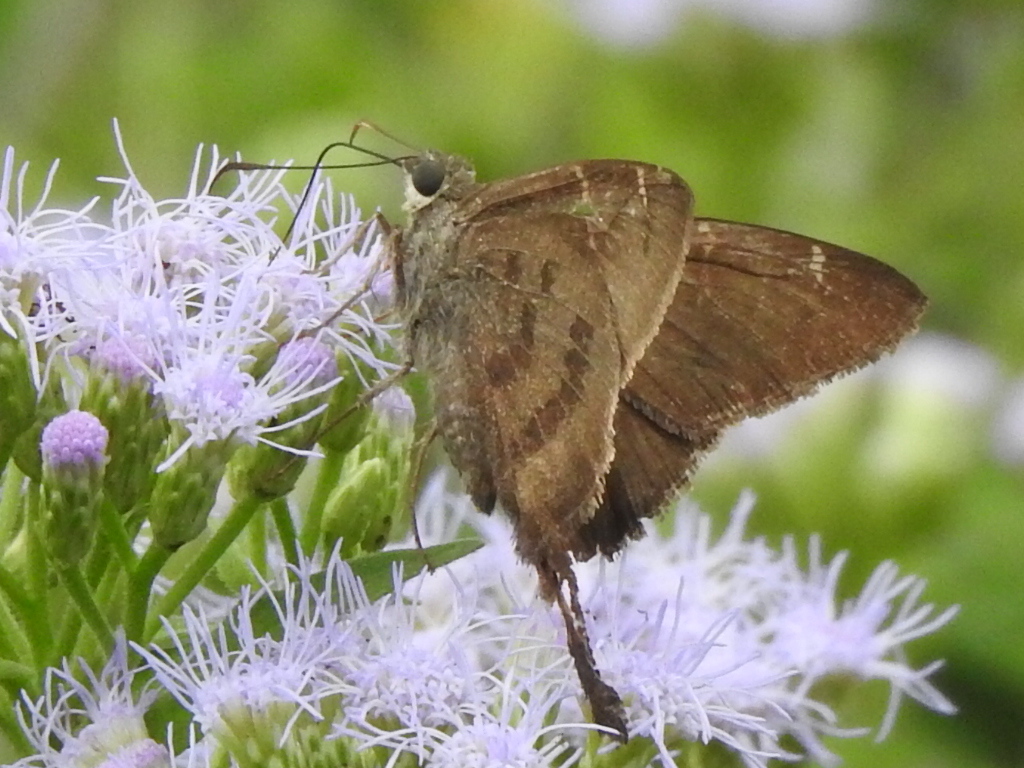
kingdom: Animalia
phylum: Arthropoda
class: Insecta
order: Lepidoptera
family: Hesperiidae
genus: Urbanus
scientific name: Urbanus procne
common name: Brown longtail
